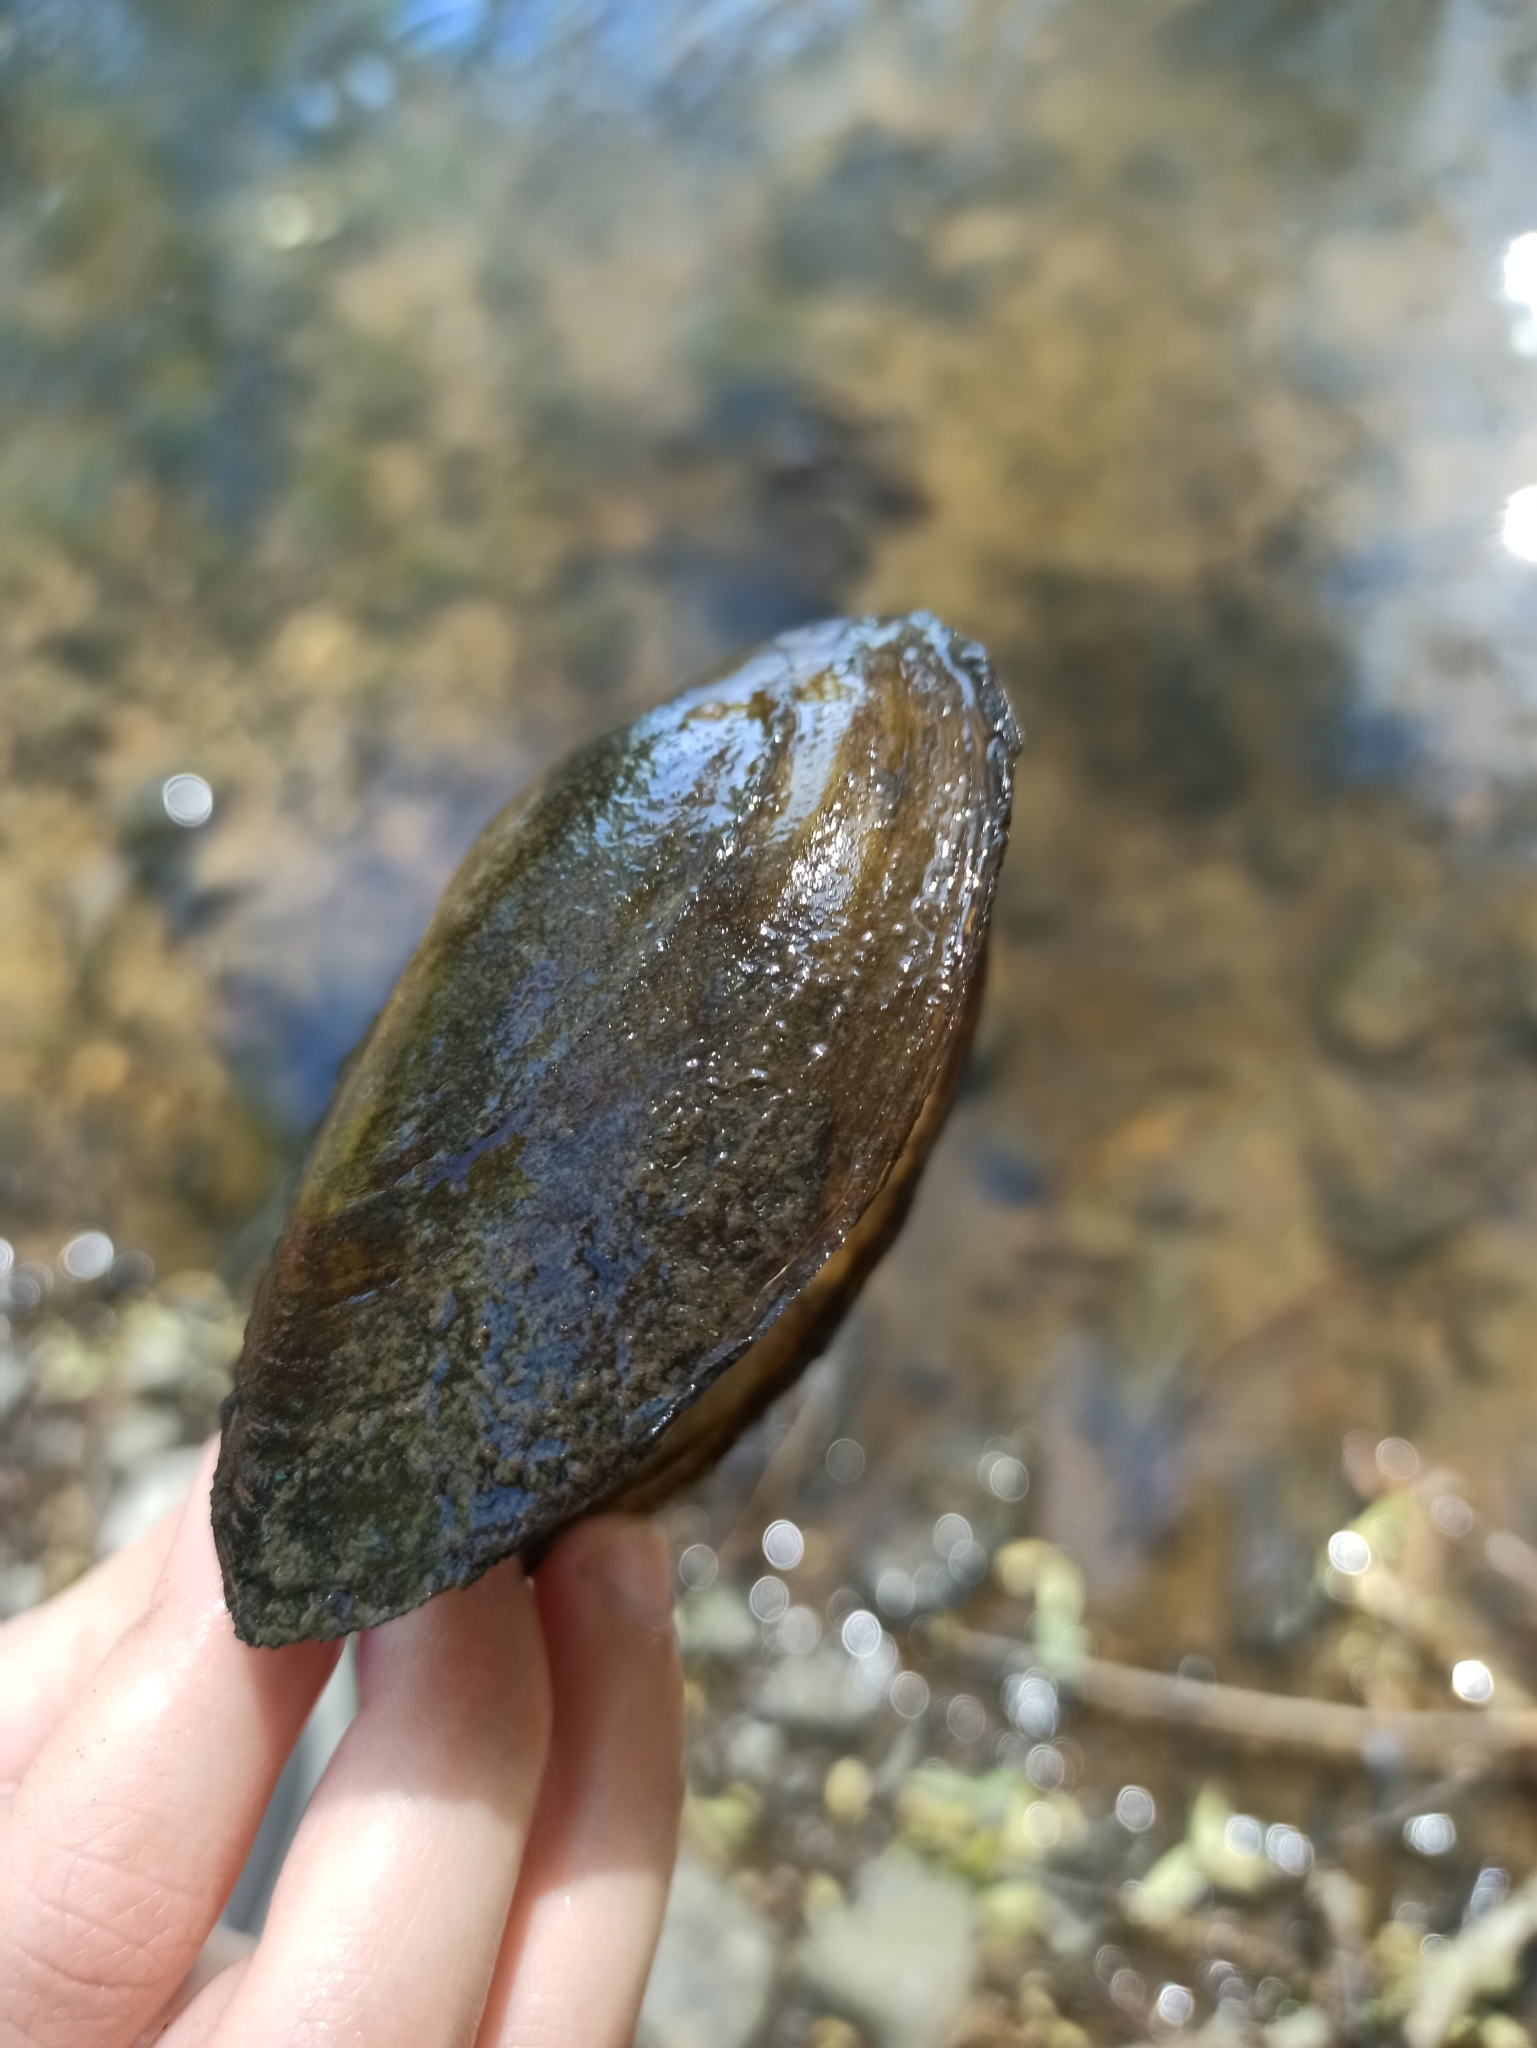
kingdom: Animalia
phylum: Mollusca
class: Bivalvia
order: Unionida
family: Unionidae
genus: Anodonta
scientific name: Anodonta anatina
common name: Duck mussel
